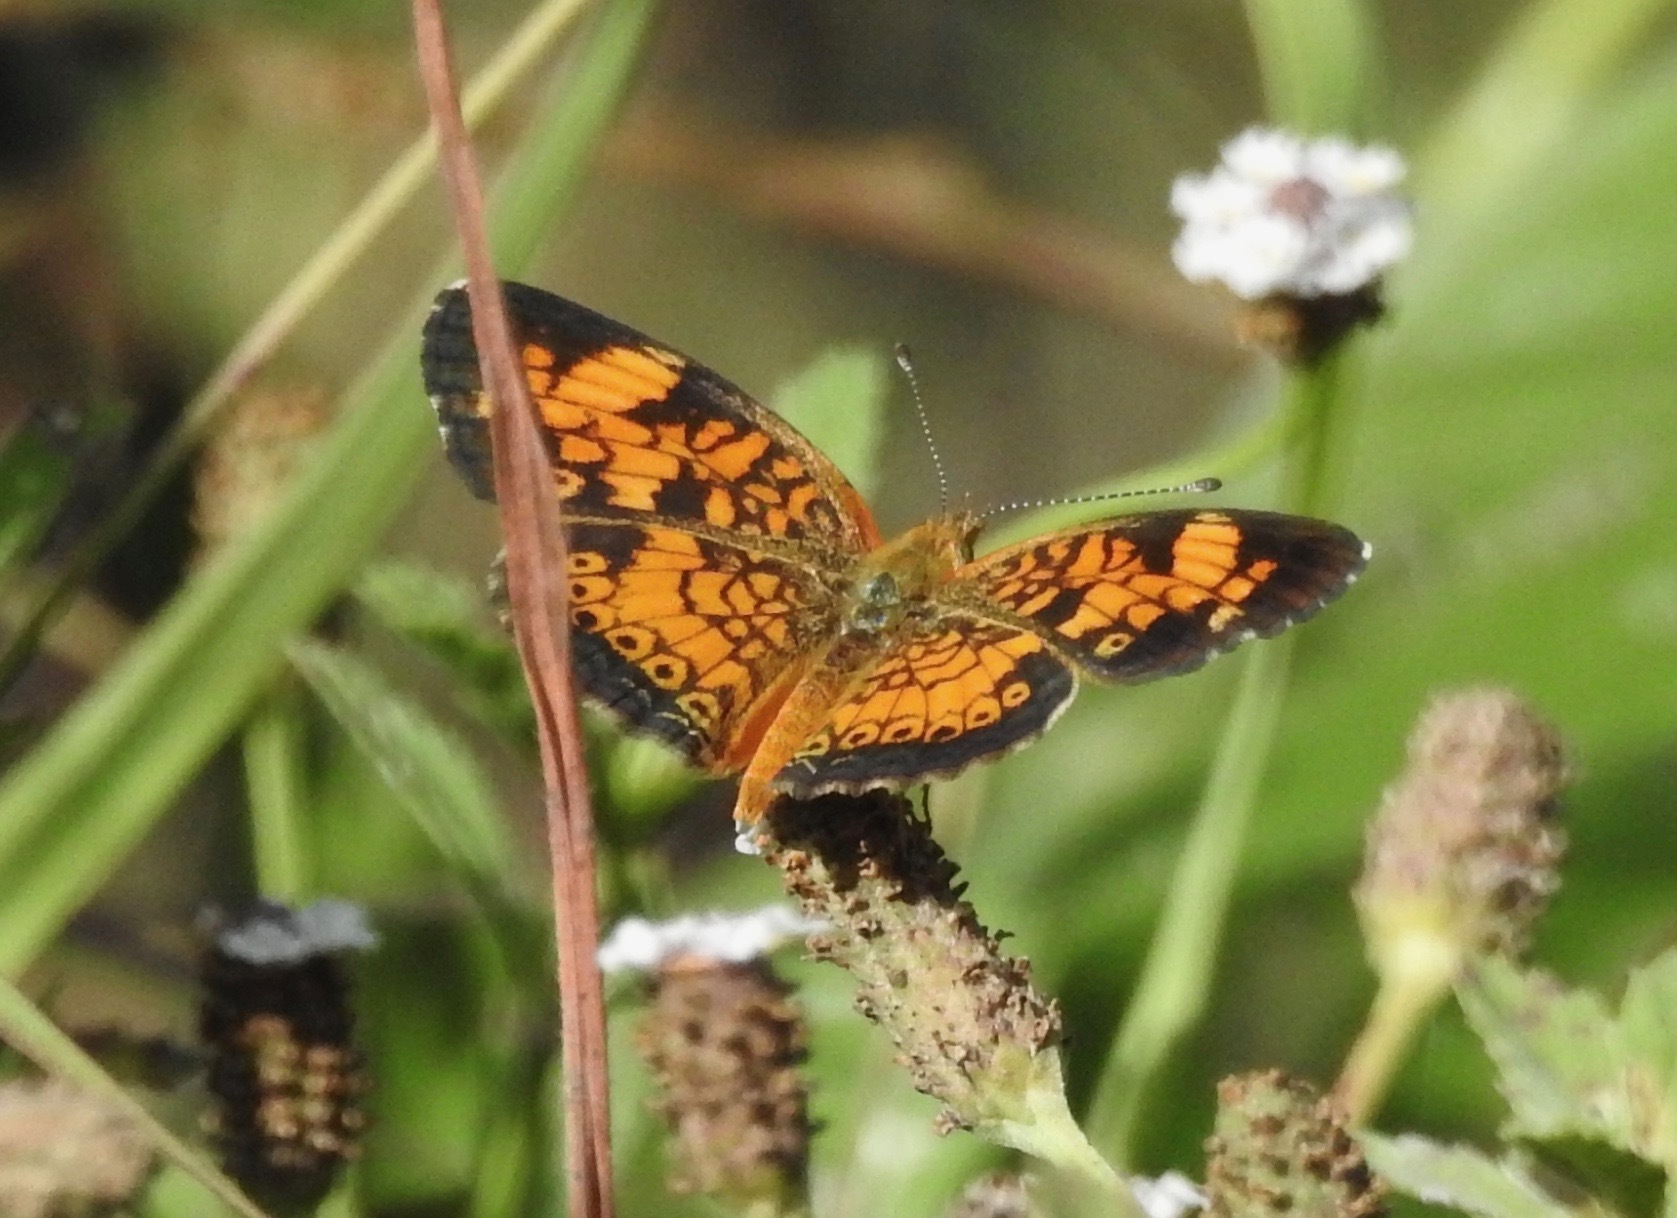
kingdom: Animalia
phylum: Arthropoda
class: Insecta
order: Lepidoptera
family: Nymphalidae
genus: Phyciodes
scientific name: Phyciodes tharos
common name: Pearl crescent
